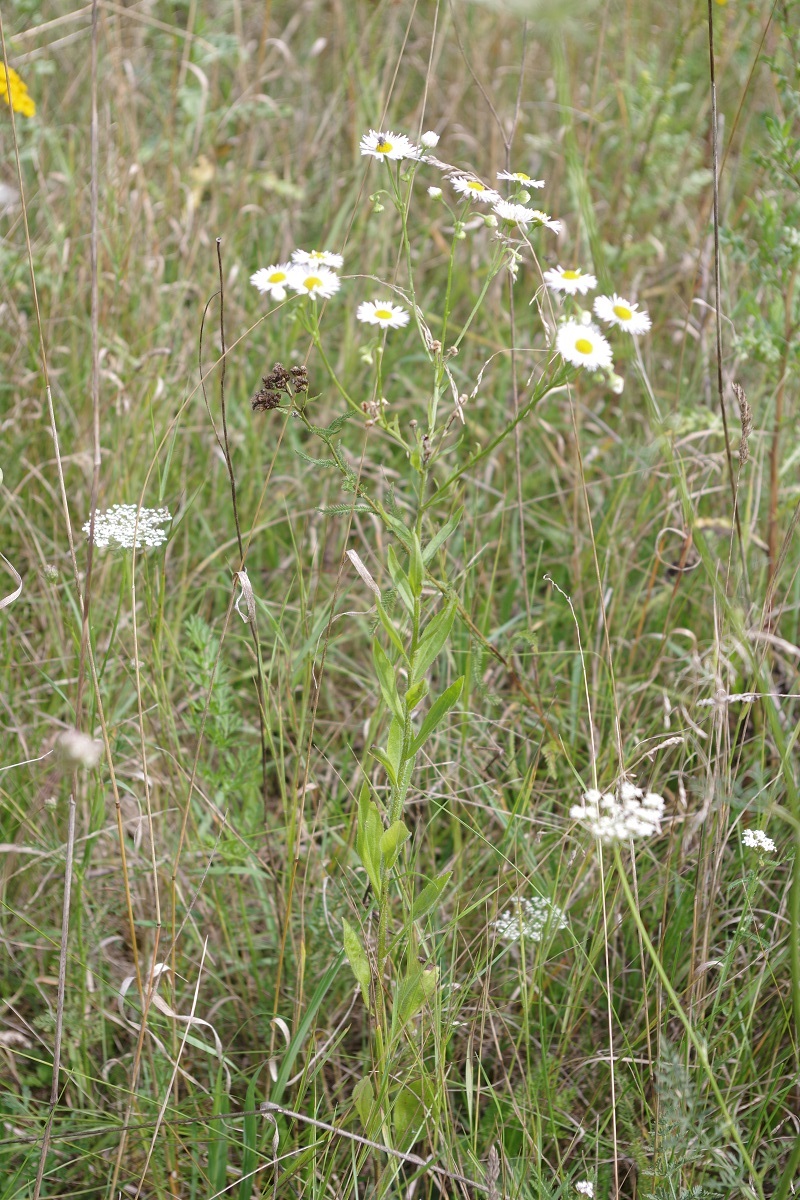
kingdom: Plantae
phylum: Tracheophyta
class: Magnoliopsida
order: Asterales
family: Asteraceae
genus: Erigeron
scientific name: Erigeron annuus
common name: Tall fleabane
